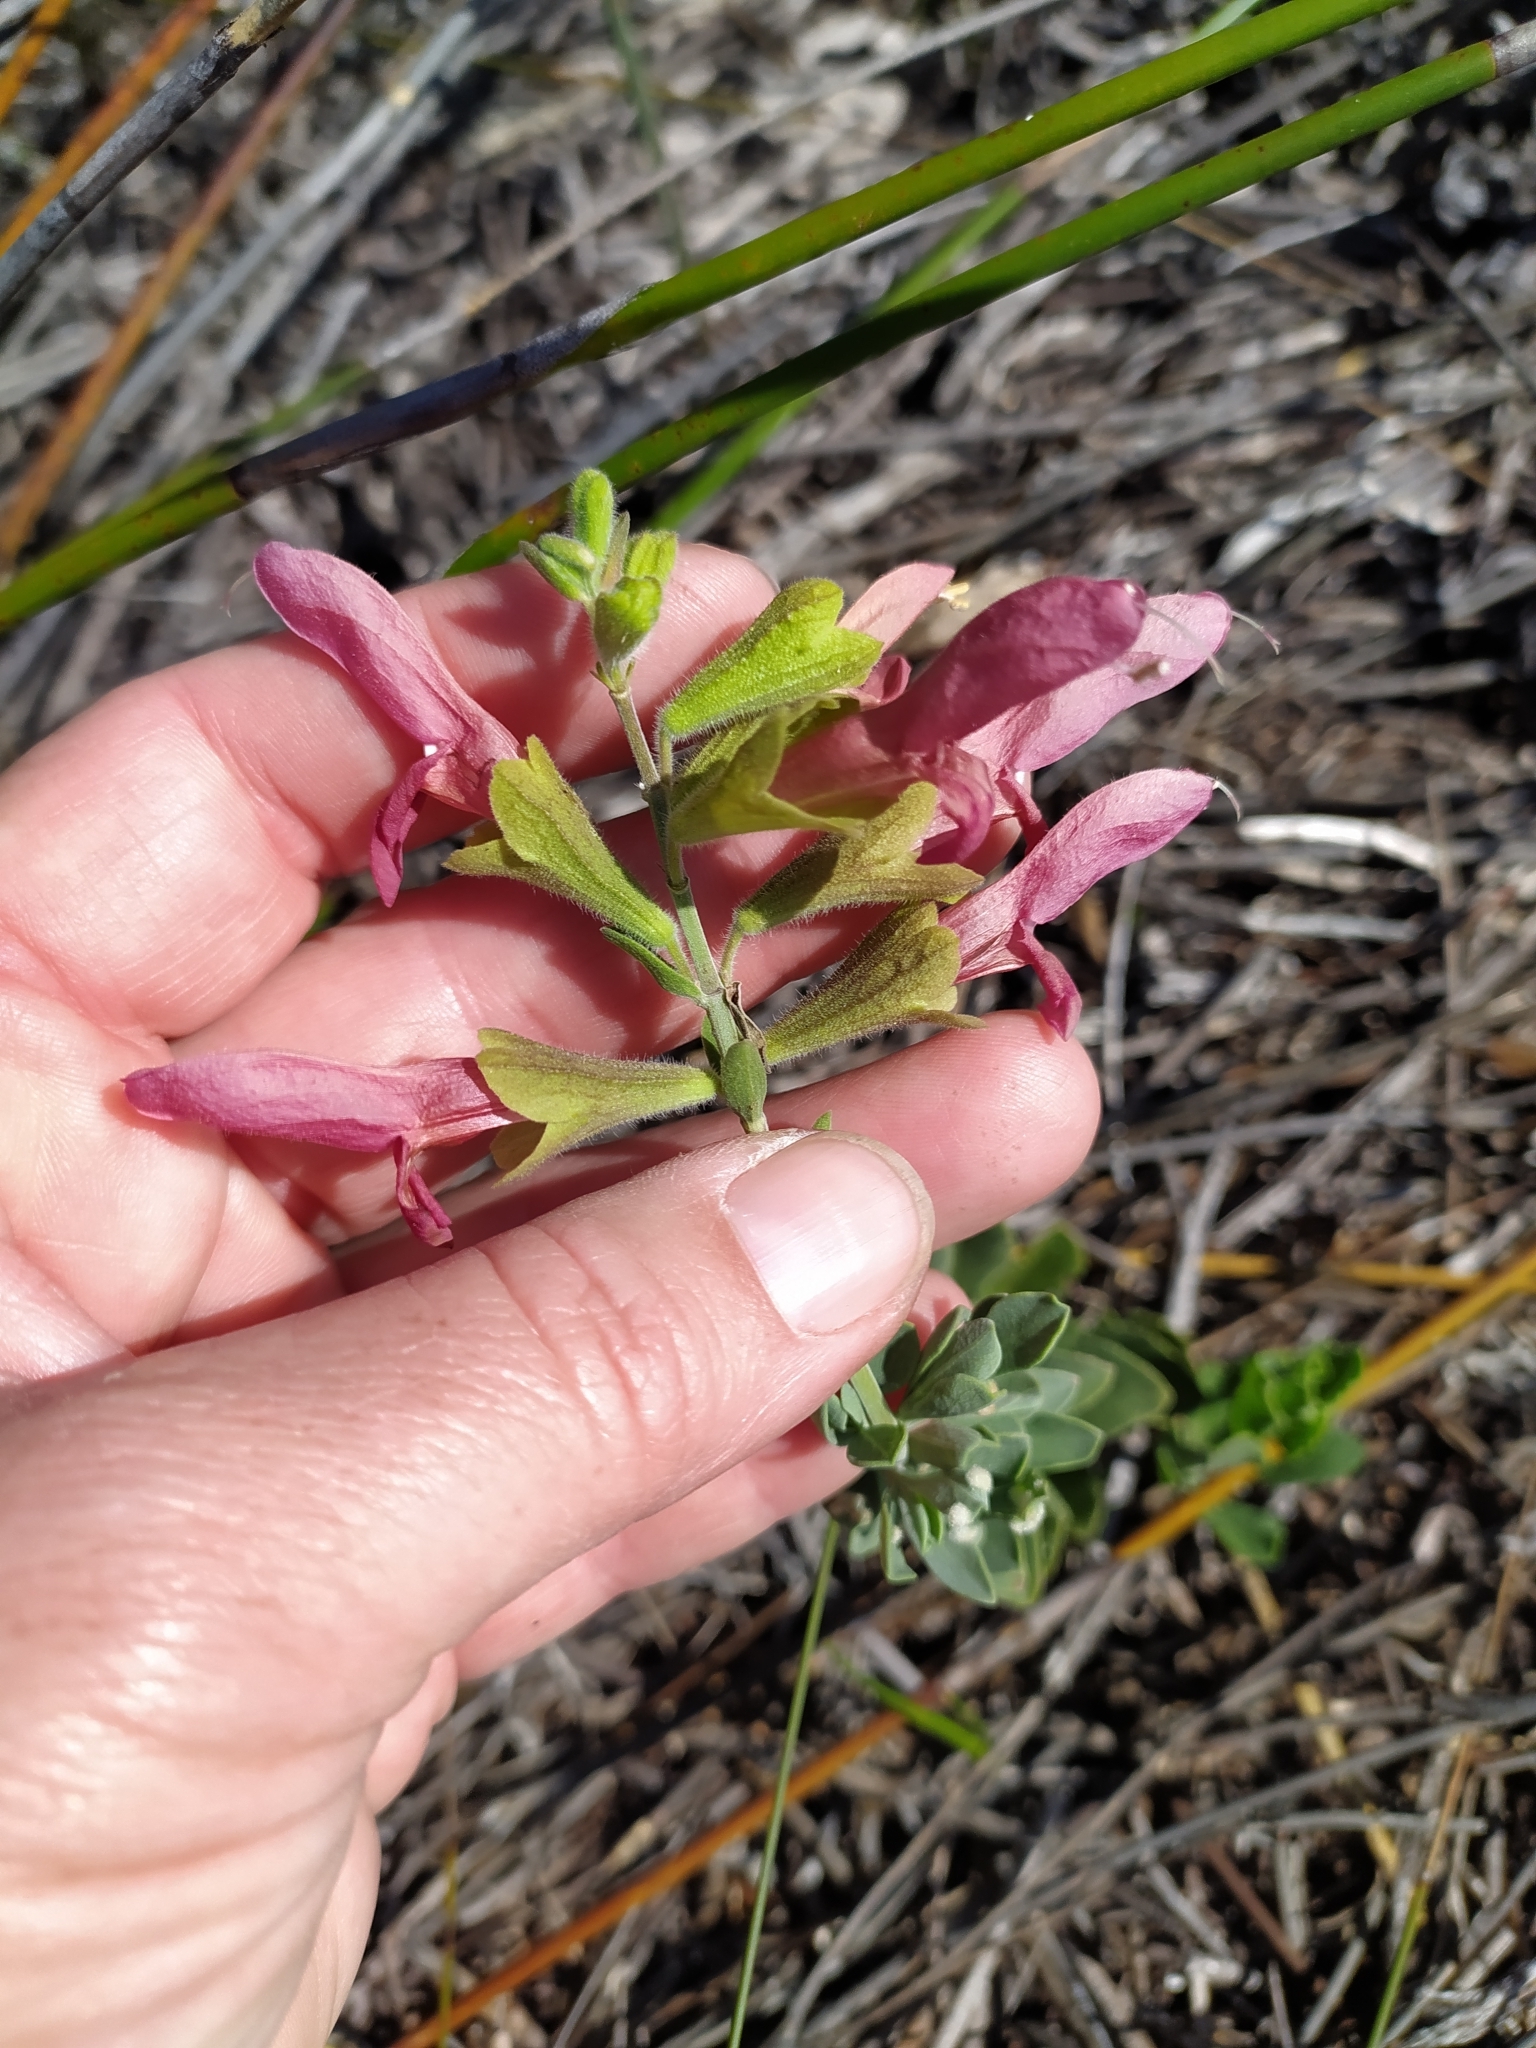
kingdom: Plantae
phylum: Tracheophyta
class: Magnoliopsida
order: Lamiales
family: Lamiaceae
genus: Salvia
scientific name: Salvia lanceolata
